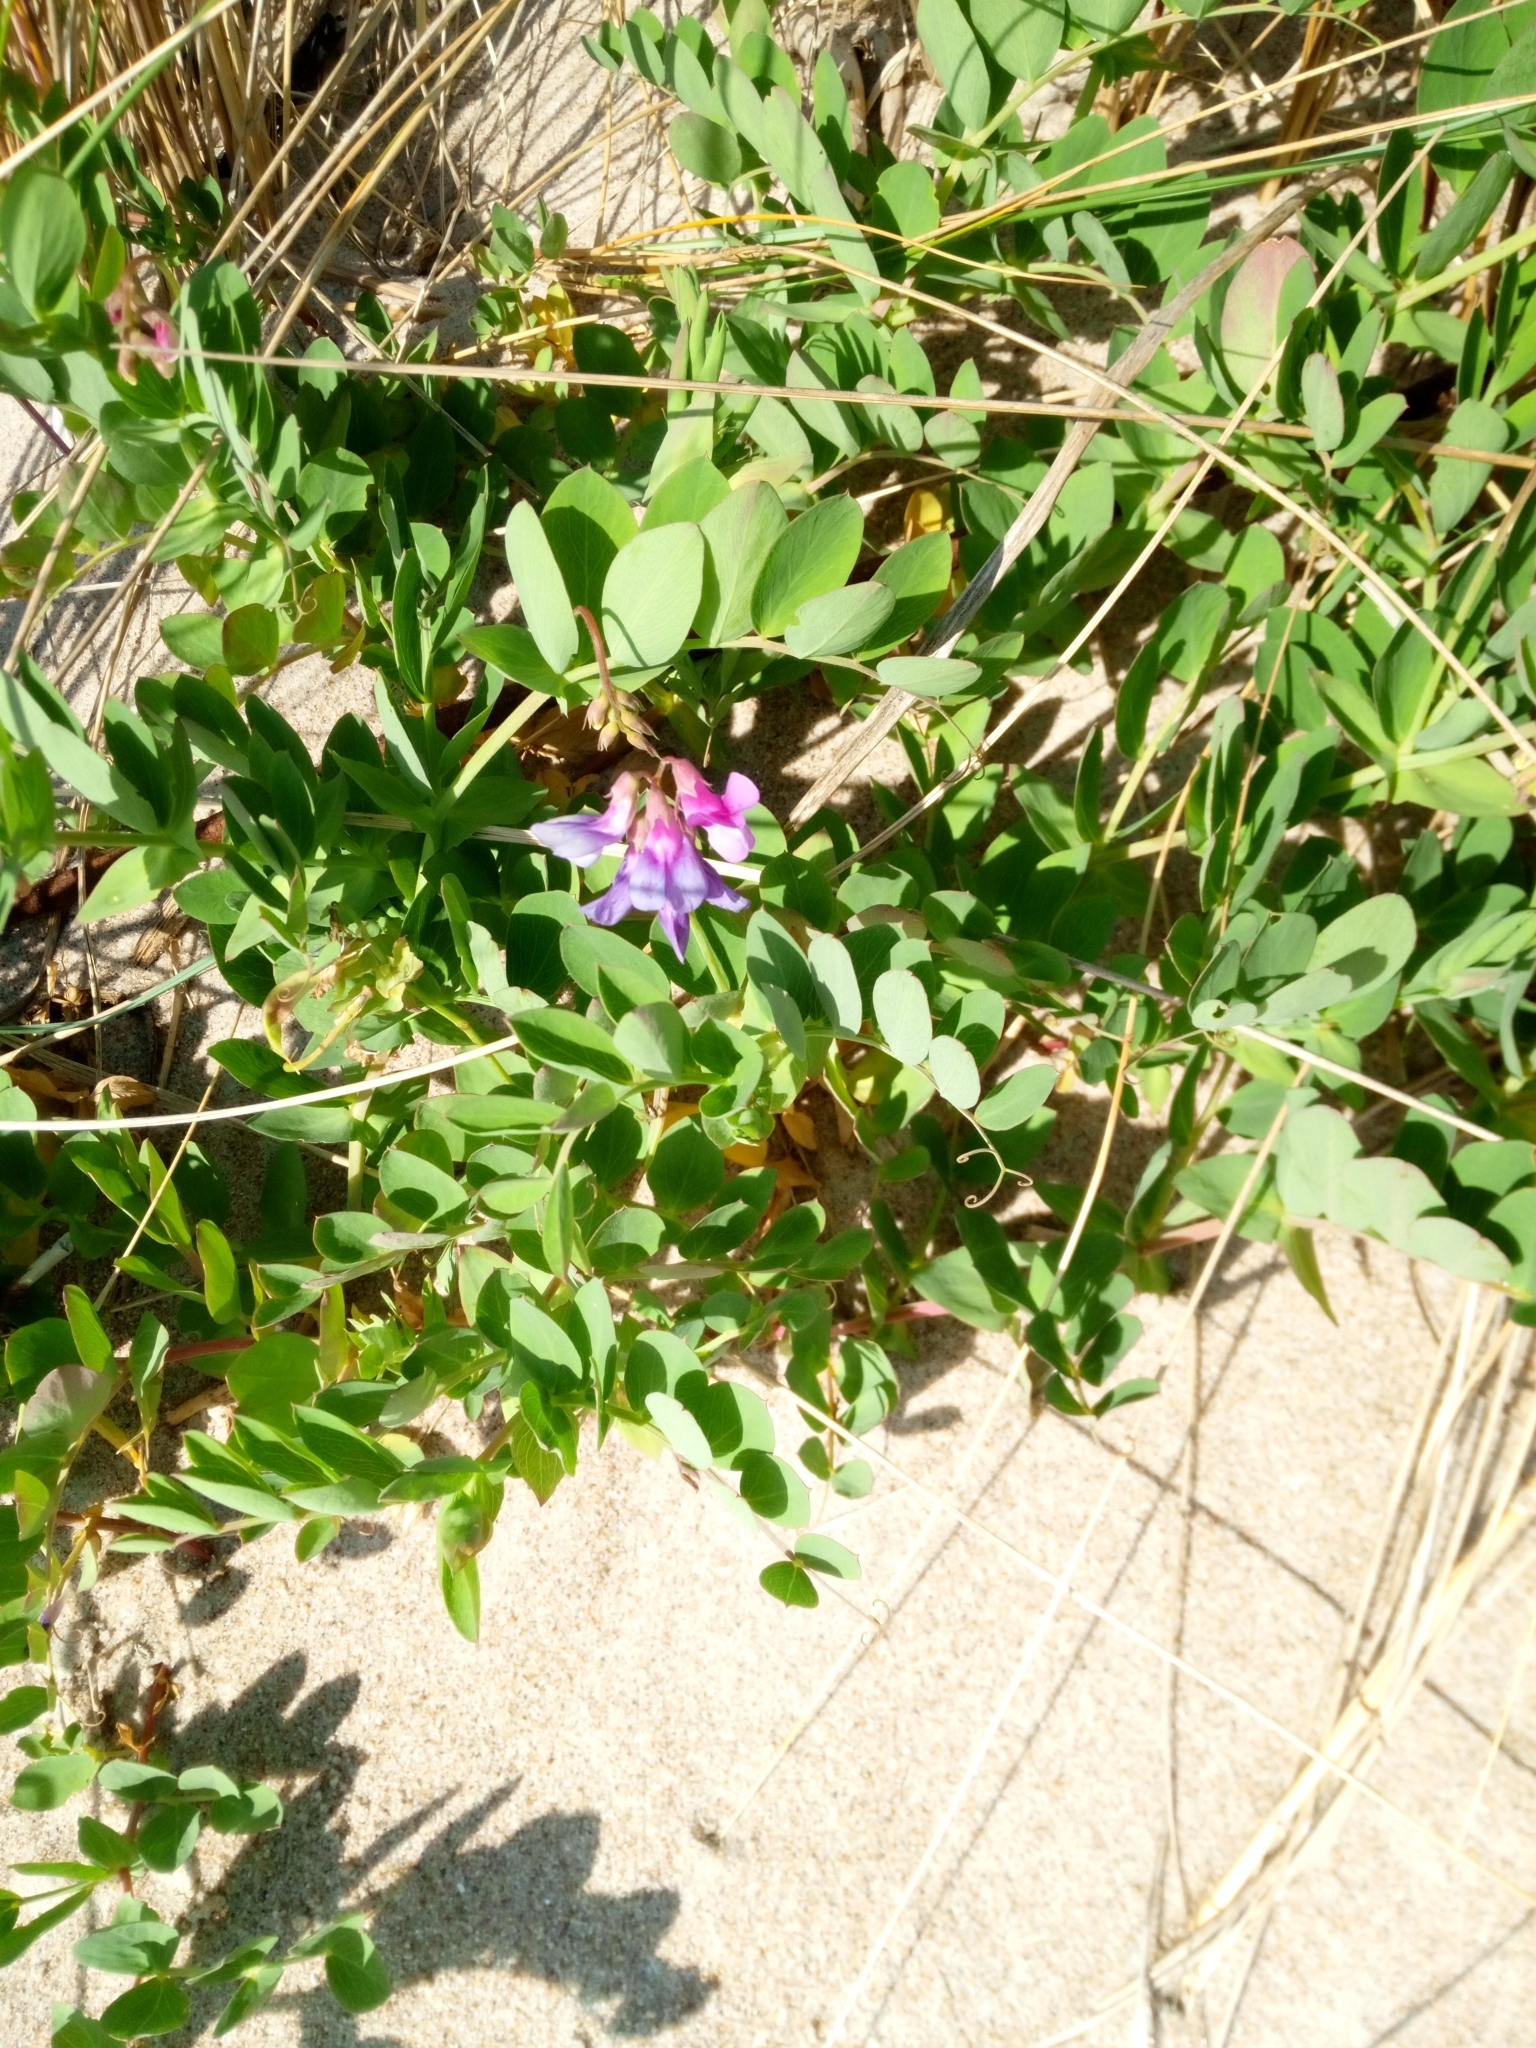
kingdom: Plantae
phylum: Tracheophyta
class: Magnoliopsida
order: Fabales
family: Fabaceae
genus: Lathyrus
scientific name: Lathyrus japonicus
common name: Sea pea
